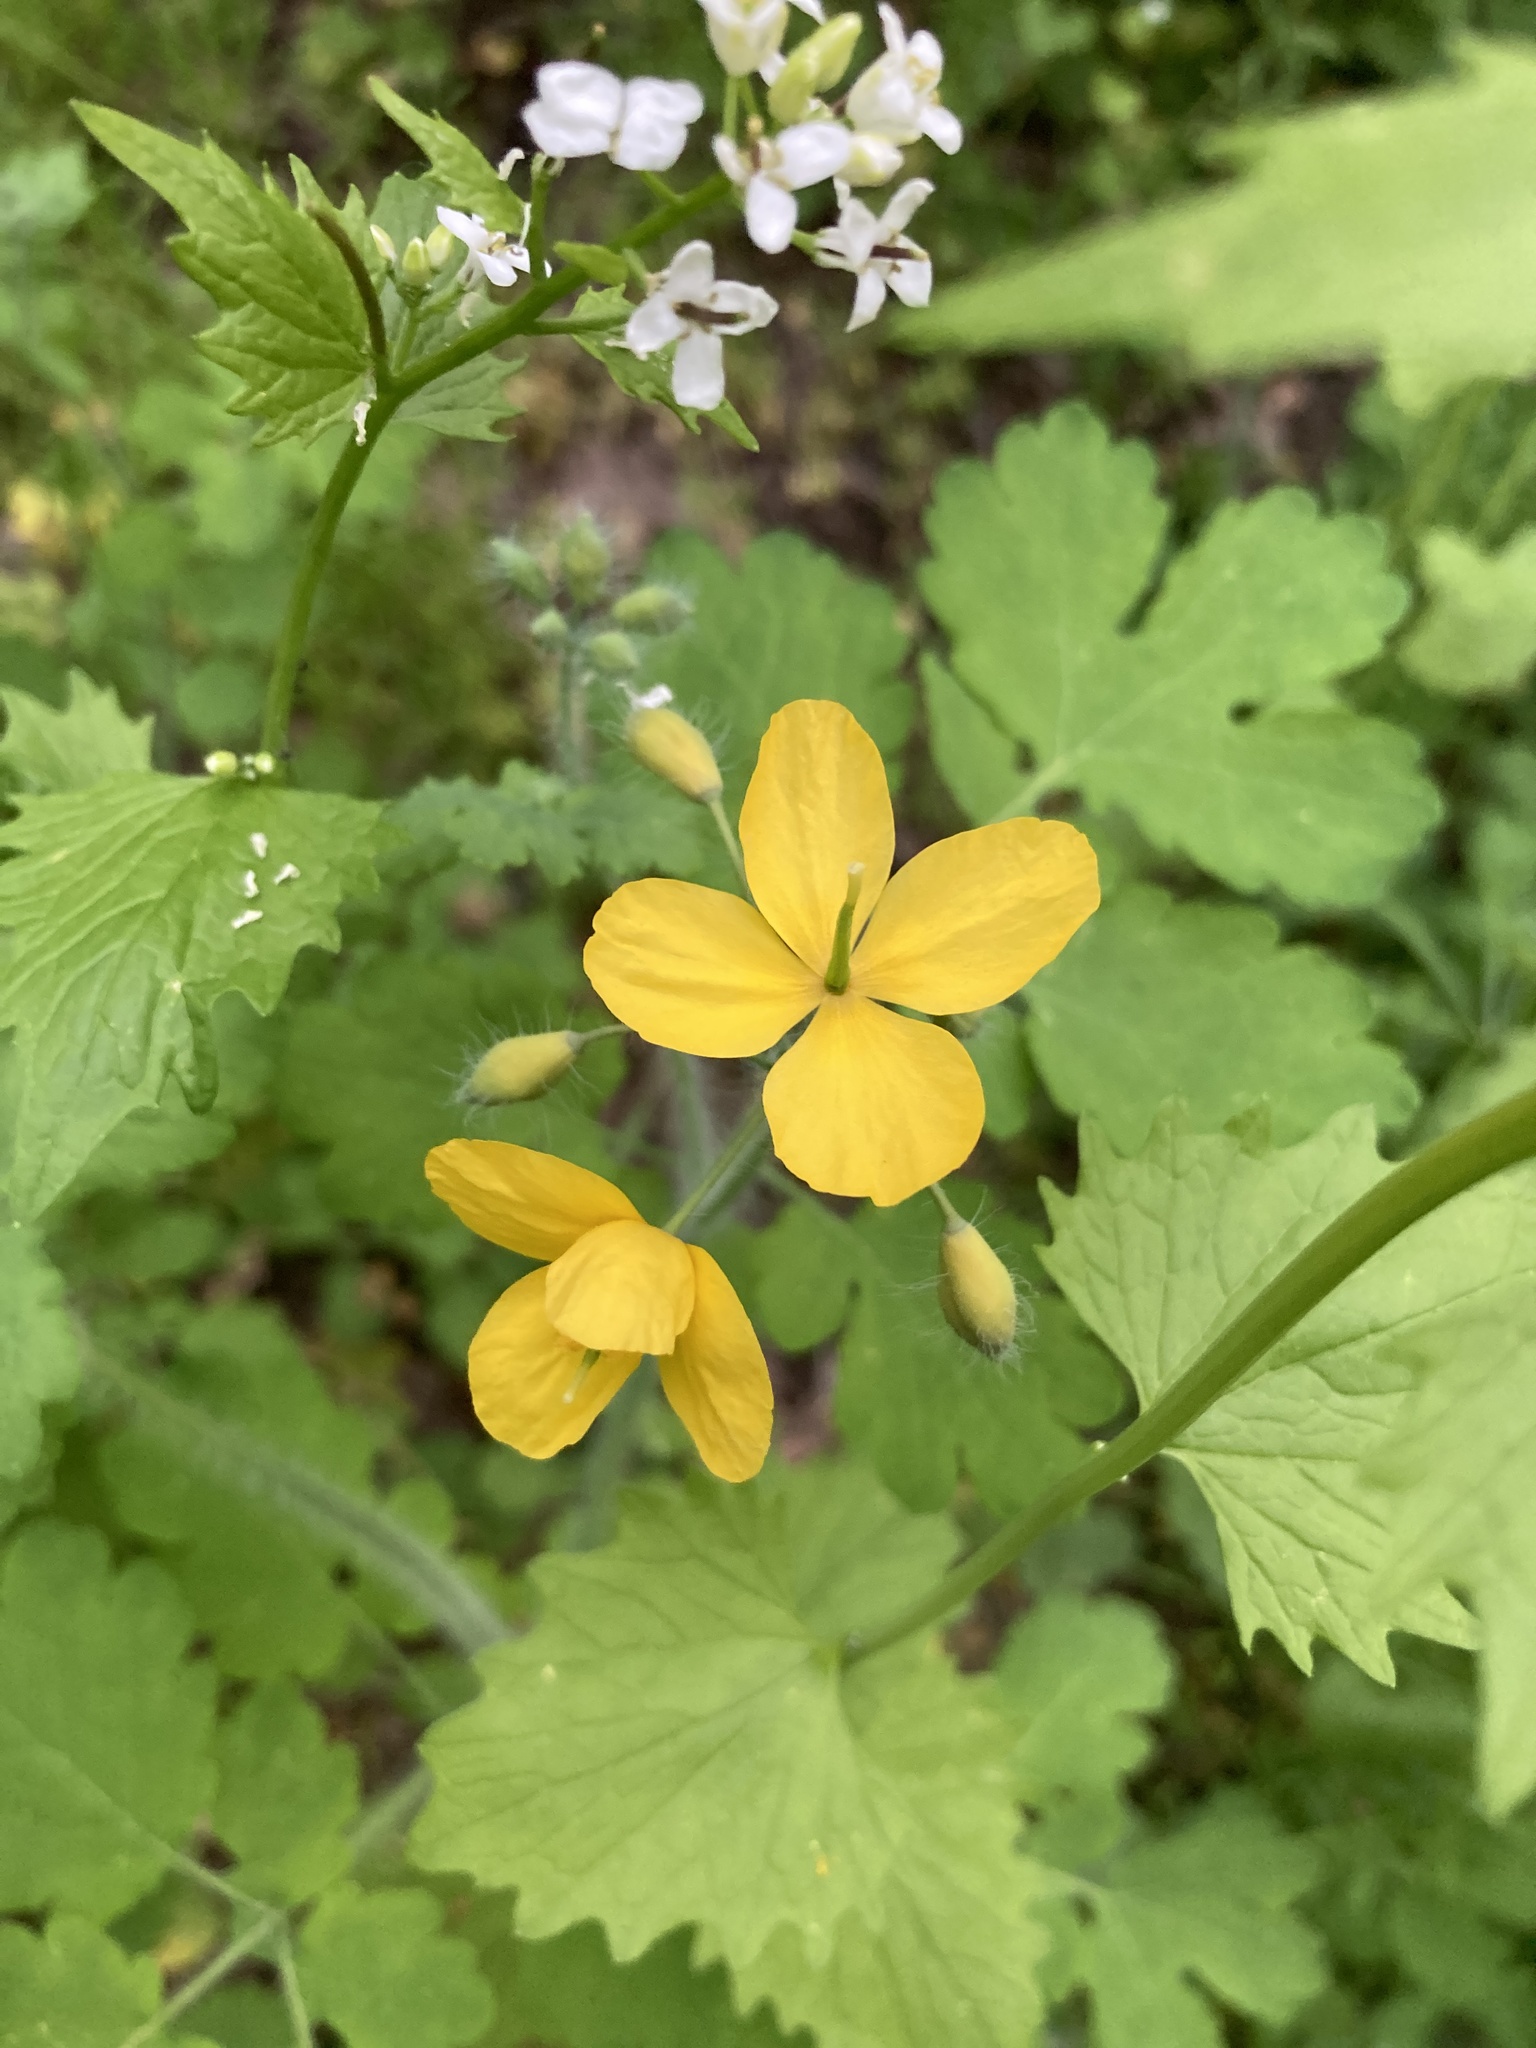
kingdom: Plantae
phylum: Tracheophyta
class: Magnoliopsida
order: Ranunculales
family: Papaveraceae
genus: Chelidonium
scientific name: Chelidonium majus
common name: Greater celandine
